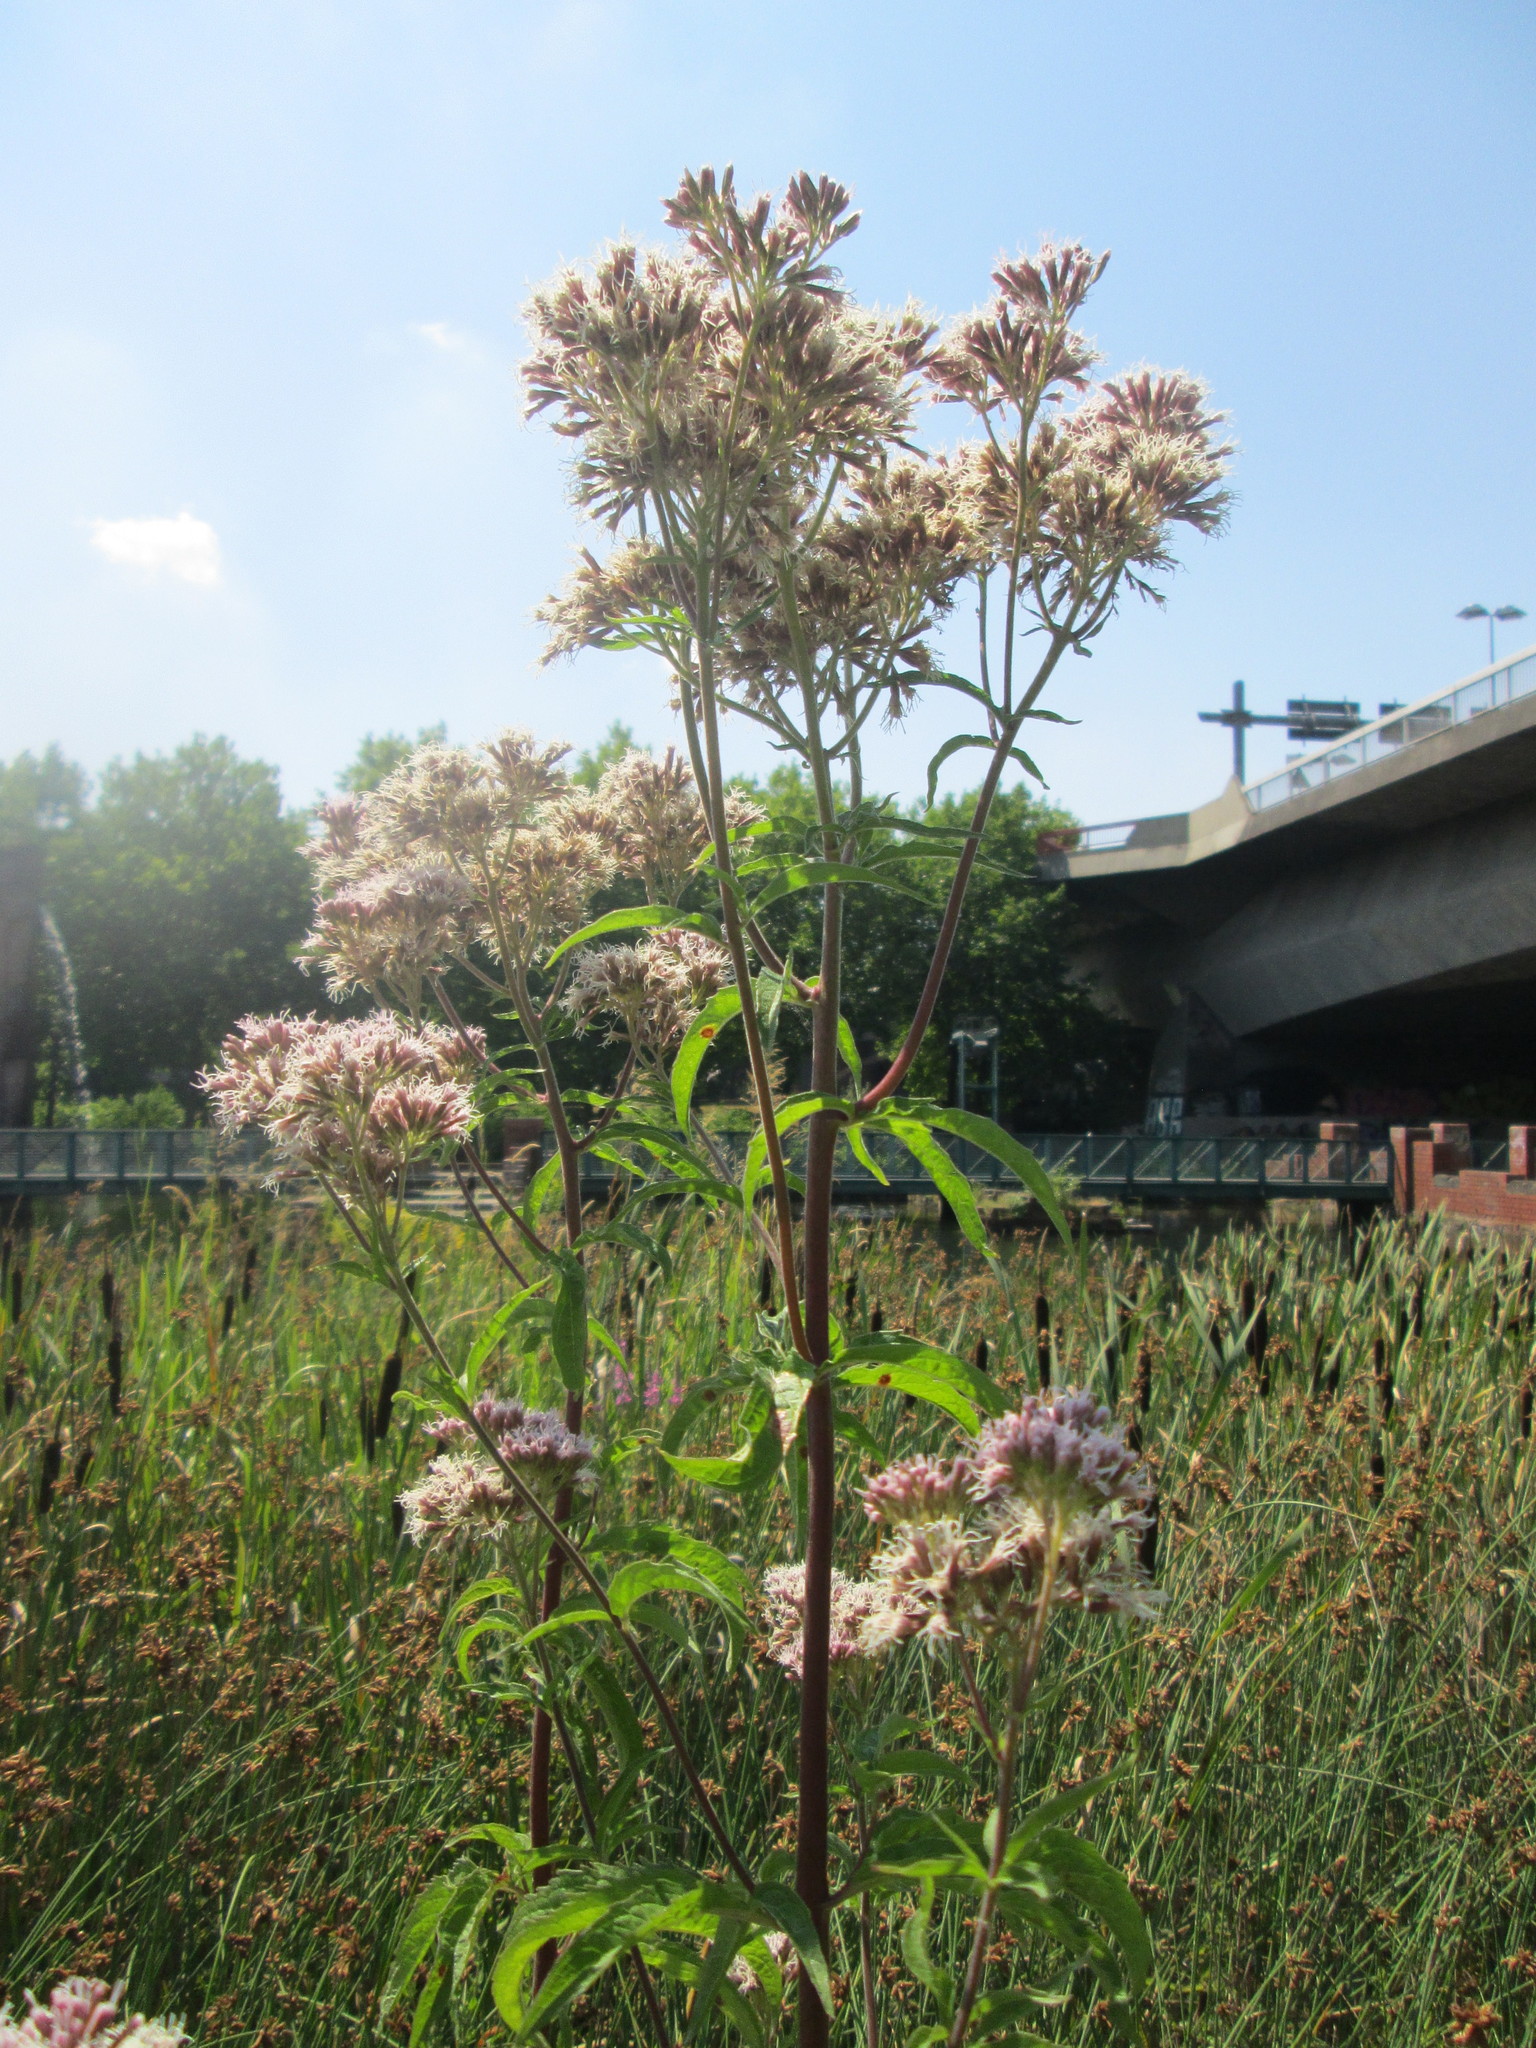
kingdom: Plantae
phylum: Tracheophyta
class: Magnoliopsida
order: Asterales
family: Asteraceae
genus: Eupatorium
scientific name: Eupatorium cannabinum
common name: Hemp-agrimony
